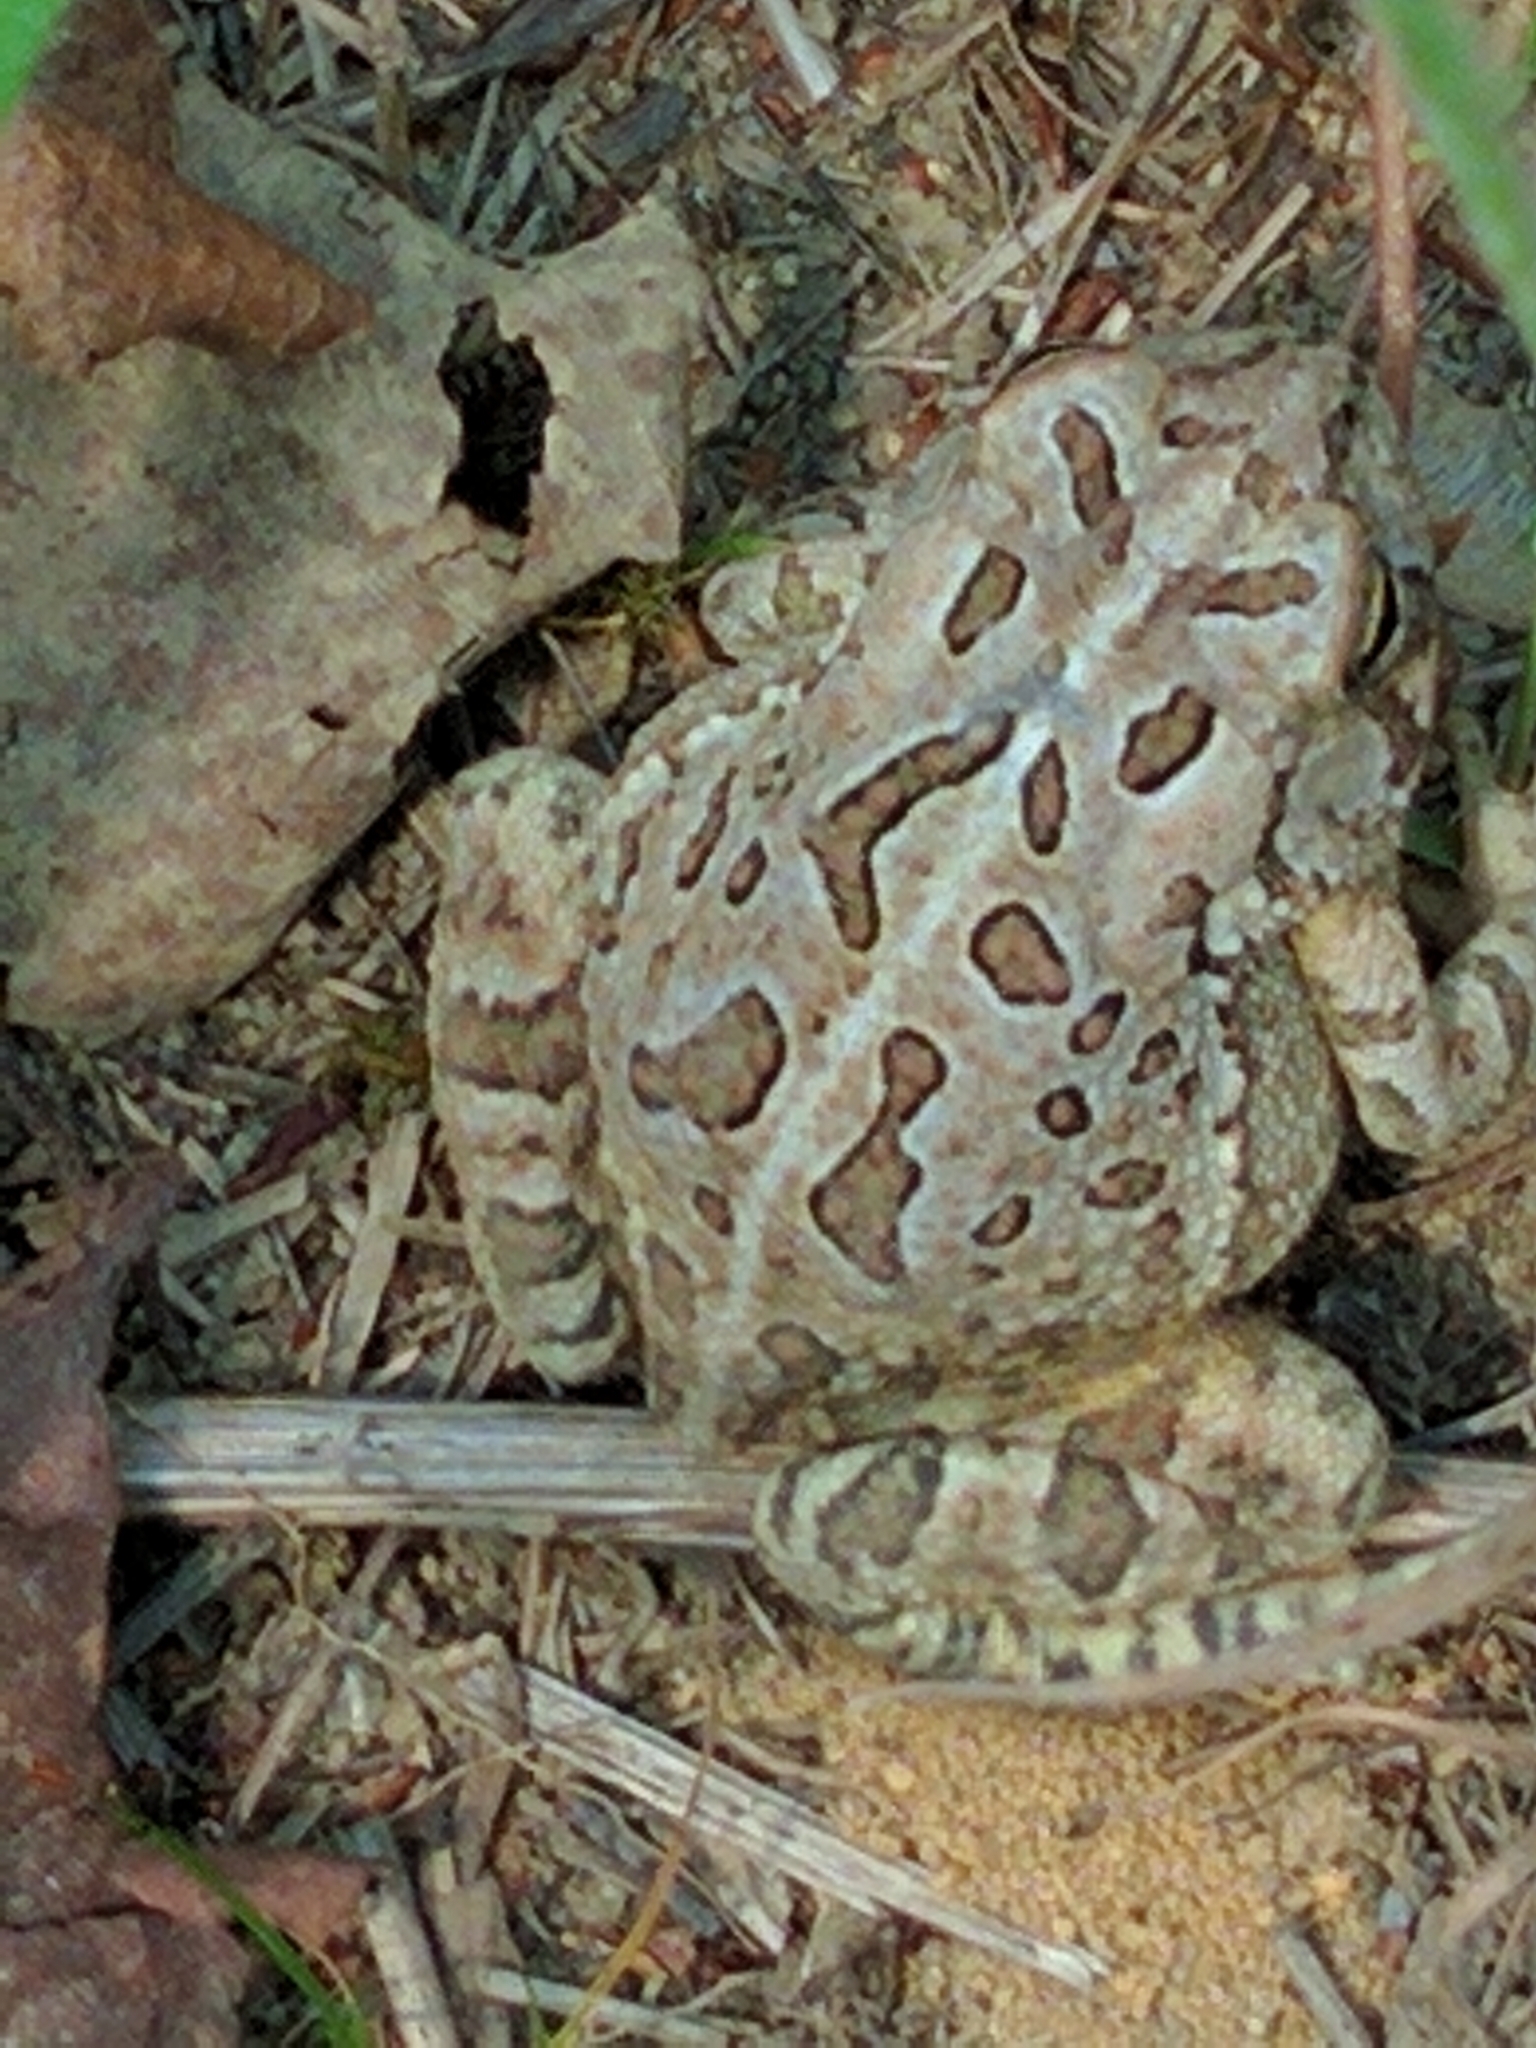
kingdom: Animalia
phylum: Chordata
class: Amphibia
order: Anura
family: Bufonidae
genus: Anaxyrus
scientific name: Anaxyrus fowleri
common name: Fowler's toad
